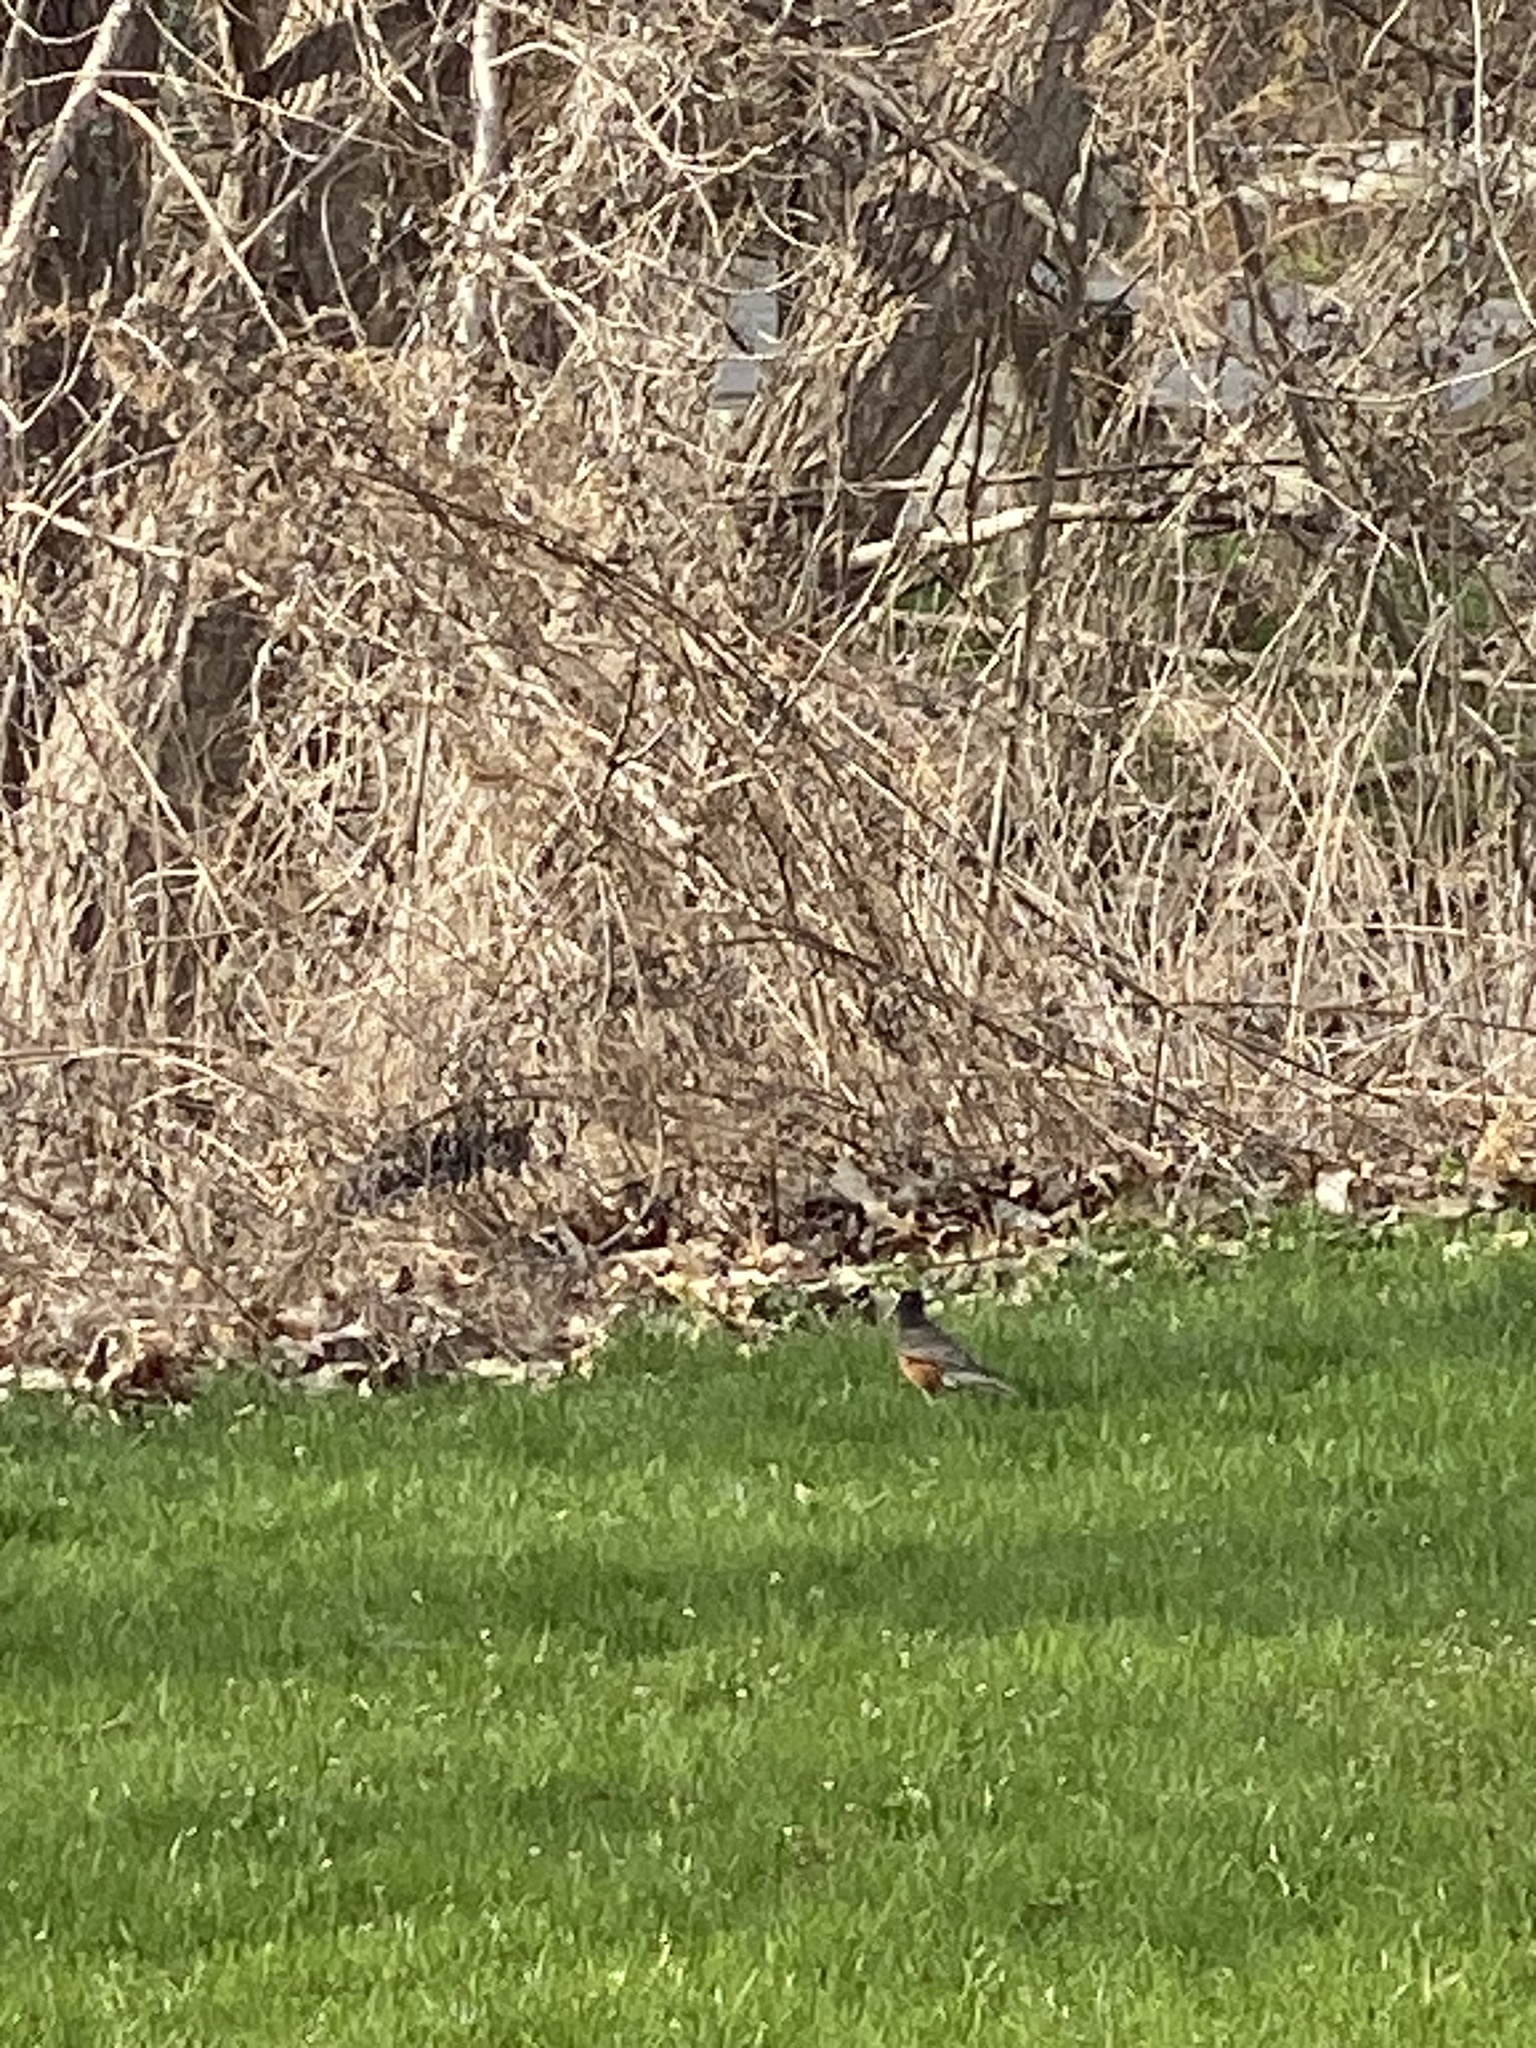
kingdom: Animalia
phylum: Chordata
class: Aves
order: Passeriformes
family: Turdidae
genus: Turdus
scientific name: Turdus migratorius
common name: American robin
